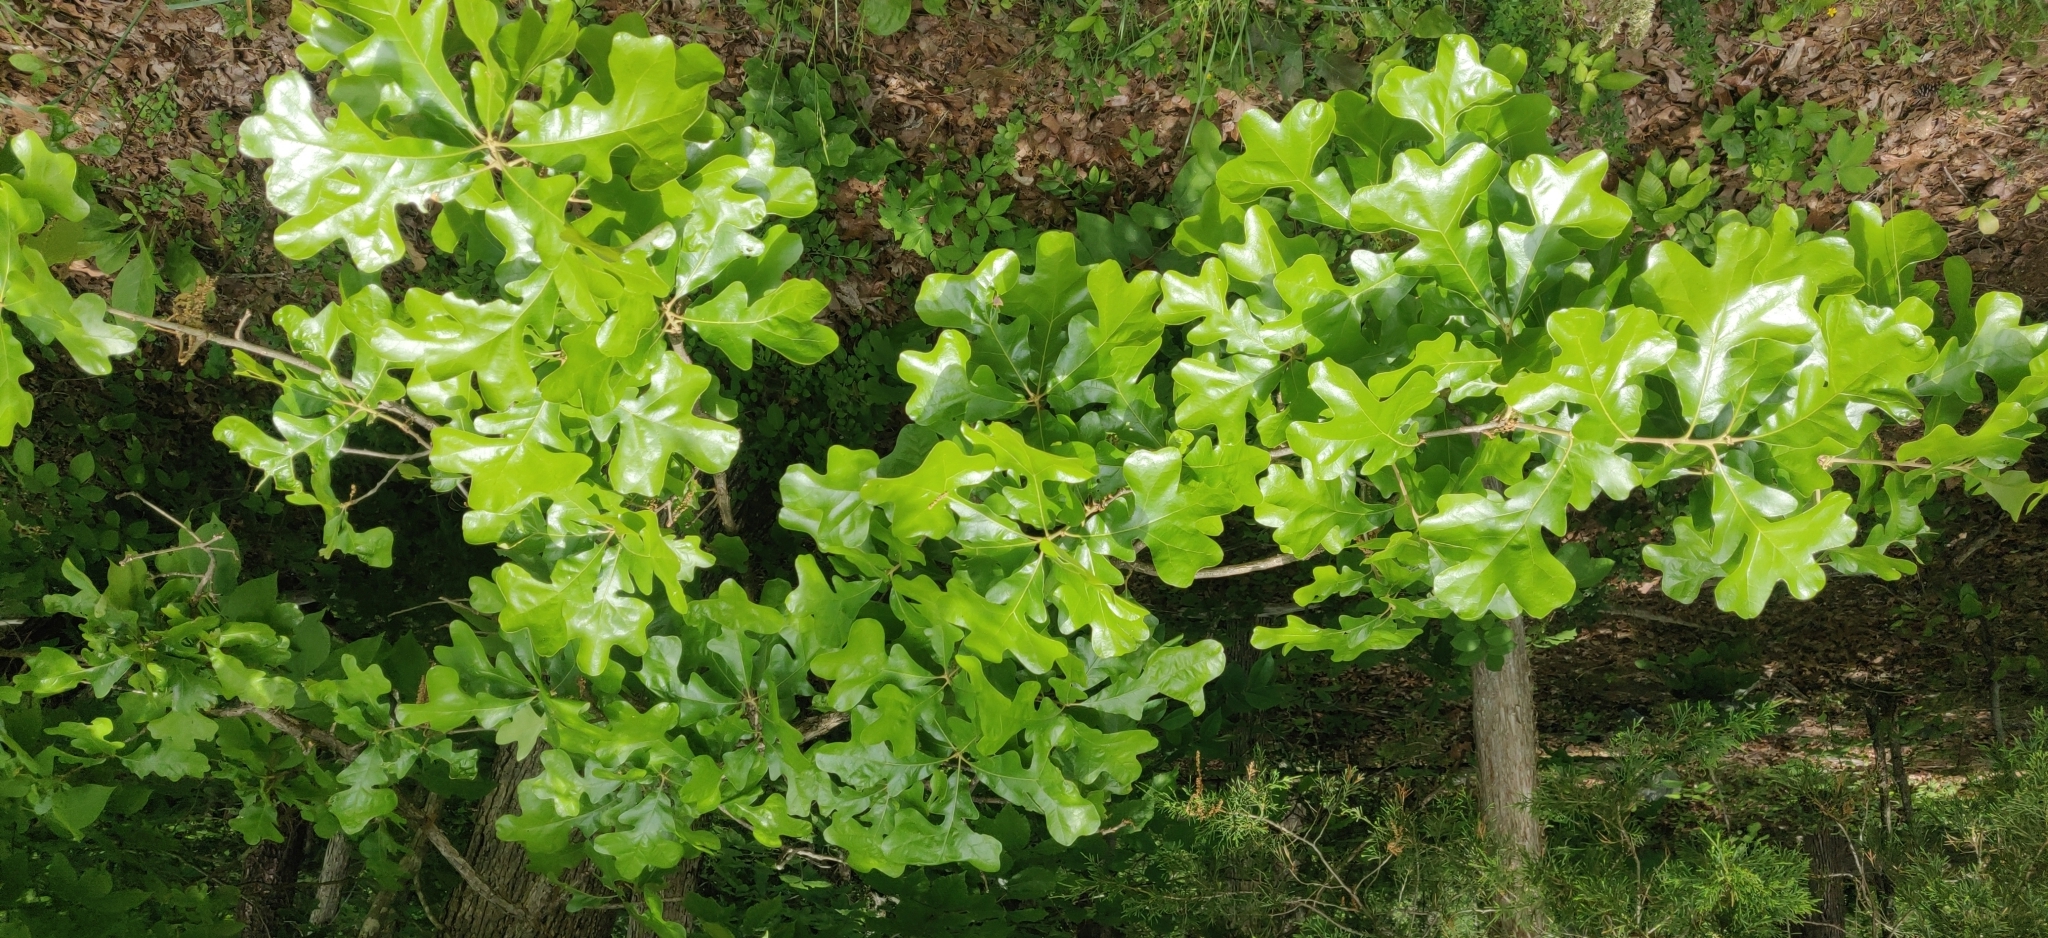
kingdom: Plantae
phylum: Tracheophyta
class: Magnoliopsida
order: Fagales
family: Fagaceae
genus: Quercus
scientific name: Quercus stellata
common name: Post oak
